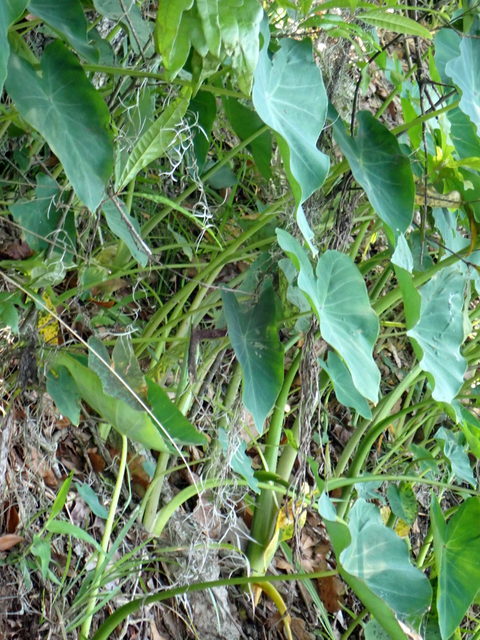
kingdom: Plantae
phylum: Tracheophyta
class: Liliopsida
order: Alismatales
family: Araceae
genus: Colocasia
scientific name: Colocasia esculenta
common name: Taro
